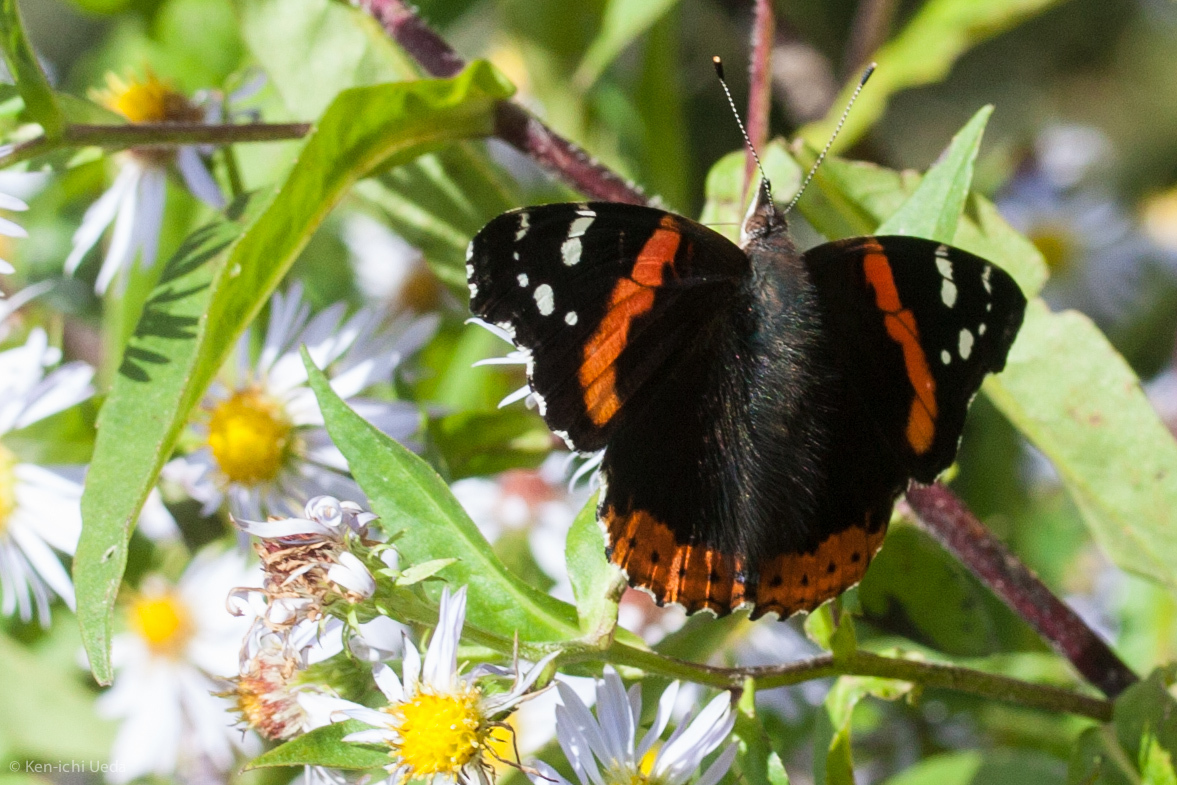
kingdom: Animalia
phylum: Arthropoda
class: Insecta
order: Lepidoptera
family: Nymphalidae
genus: Vanessa
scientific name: Vanessa atalanta
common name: Red admiral
